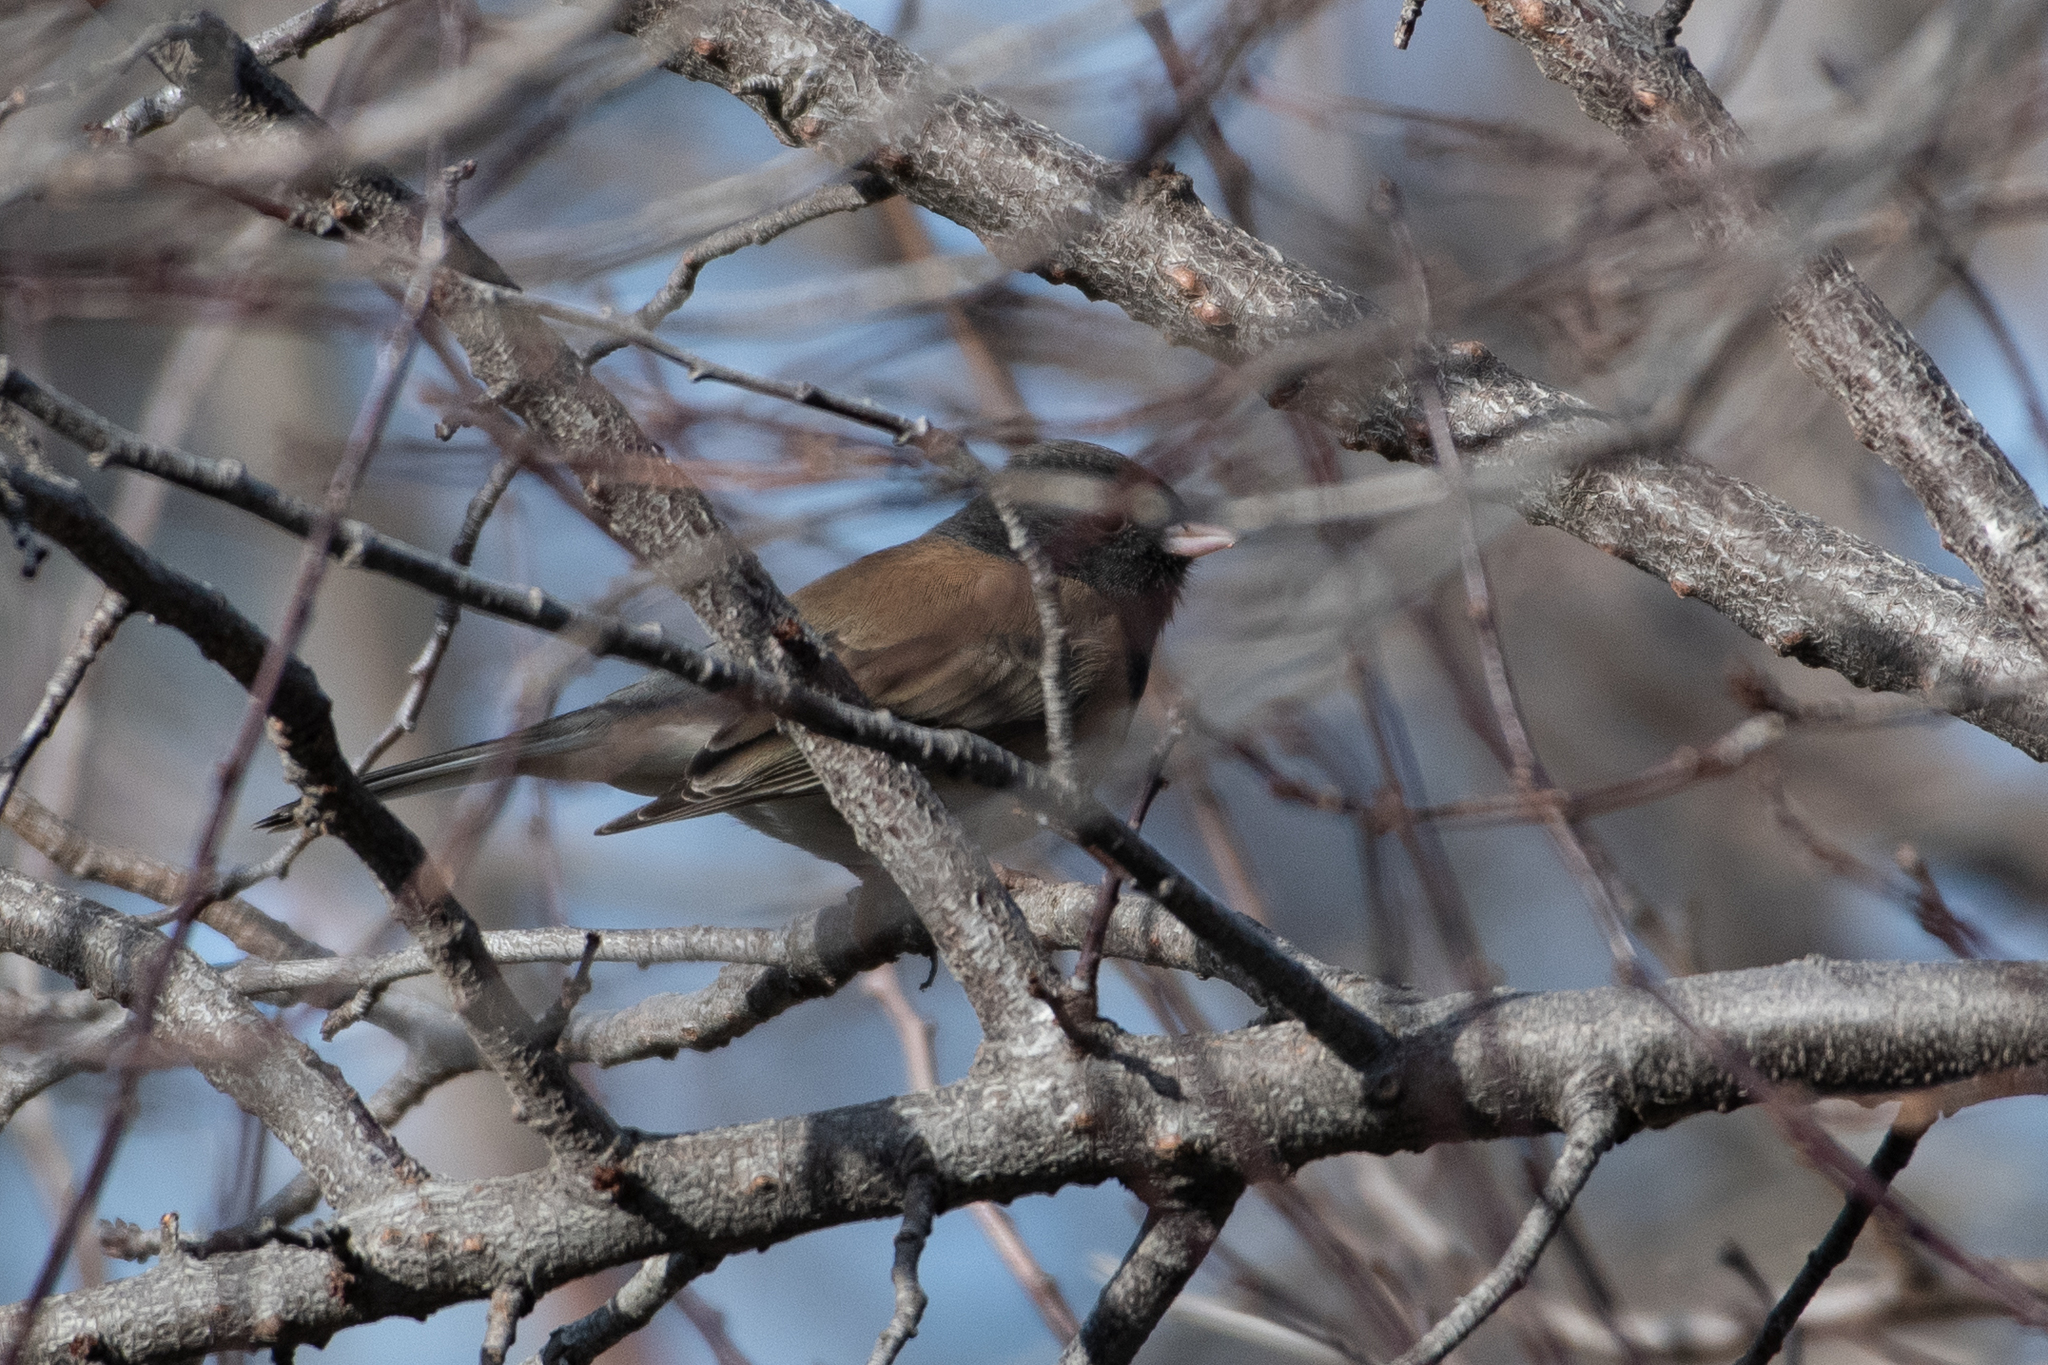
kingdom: Animalia
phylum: Chordata
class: Aves
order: Passeriformes
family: Passerellidae
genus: Junco
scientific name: Junco hyemalis
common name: Dark-eyed junco
